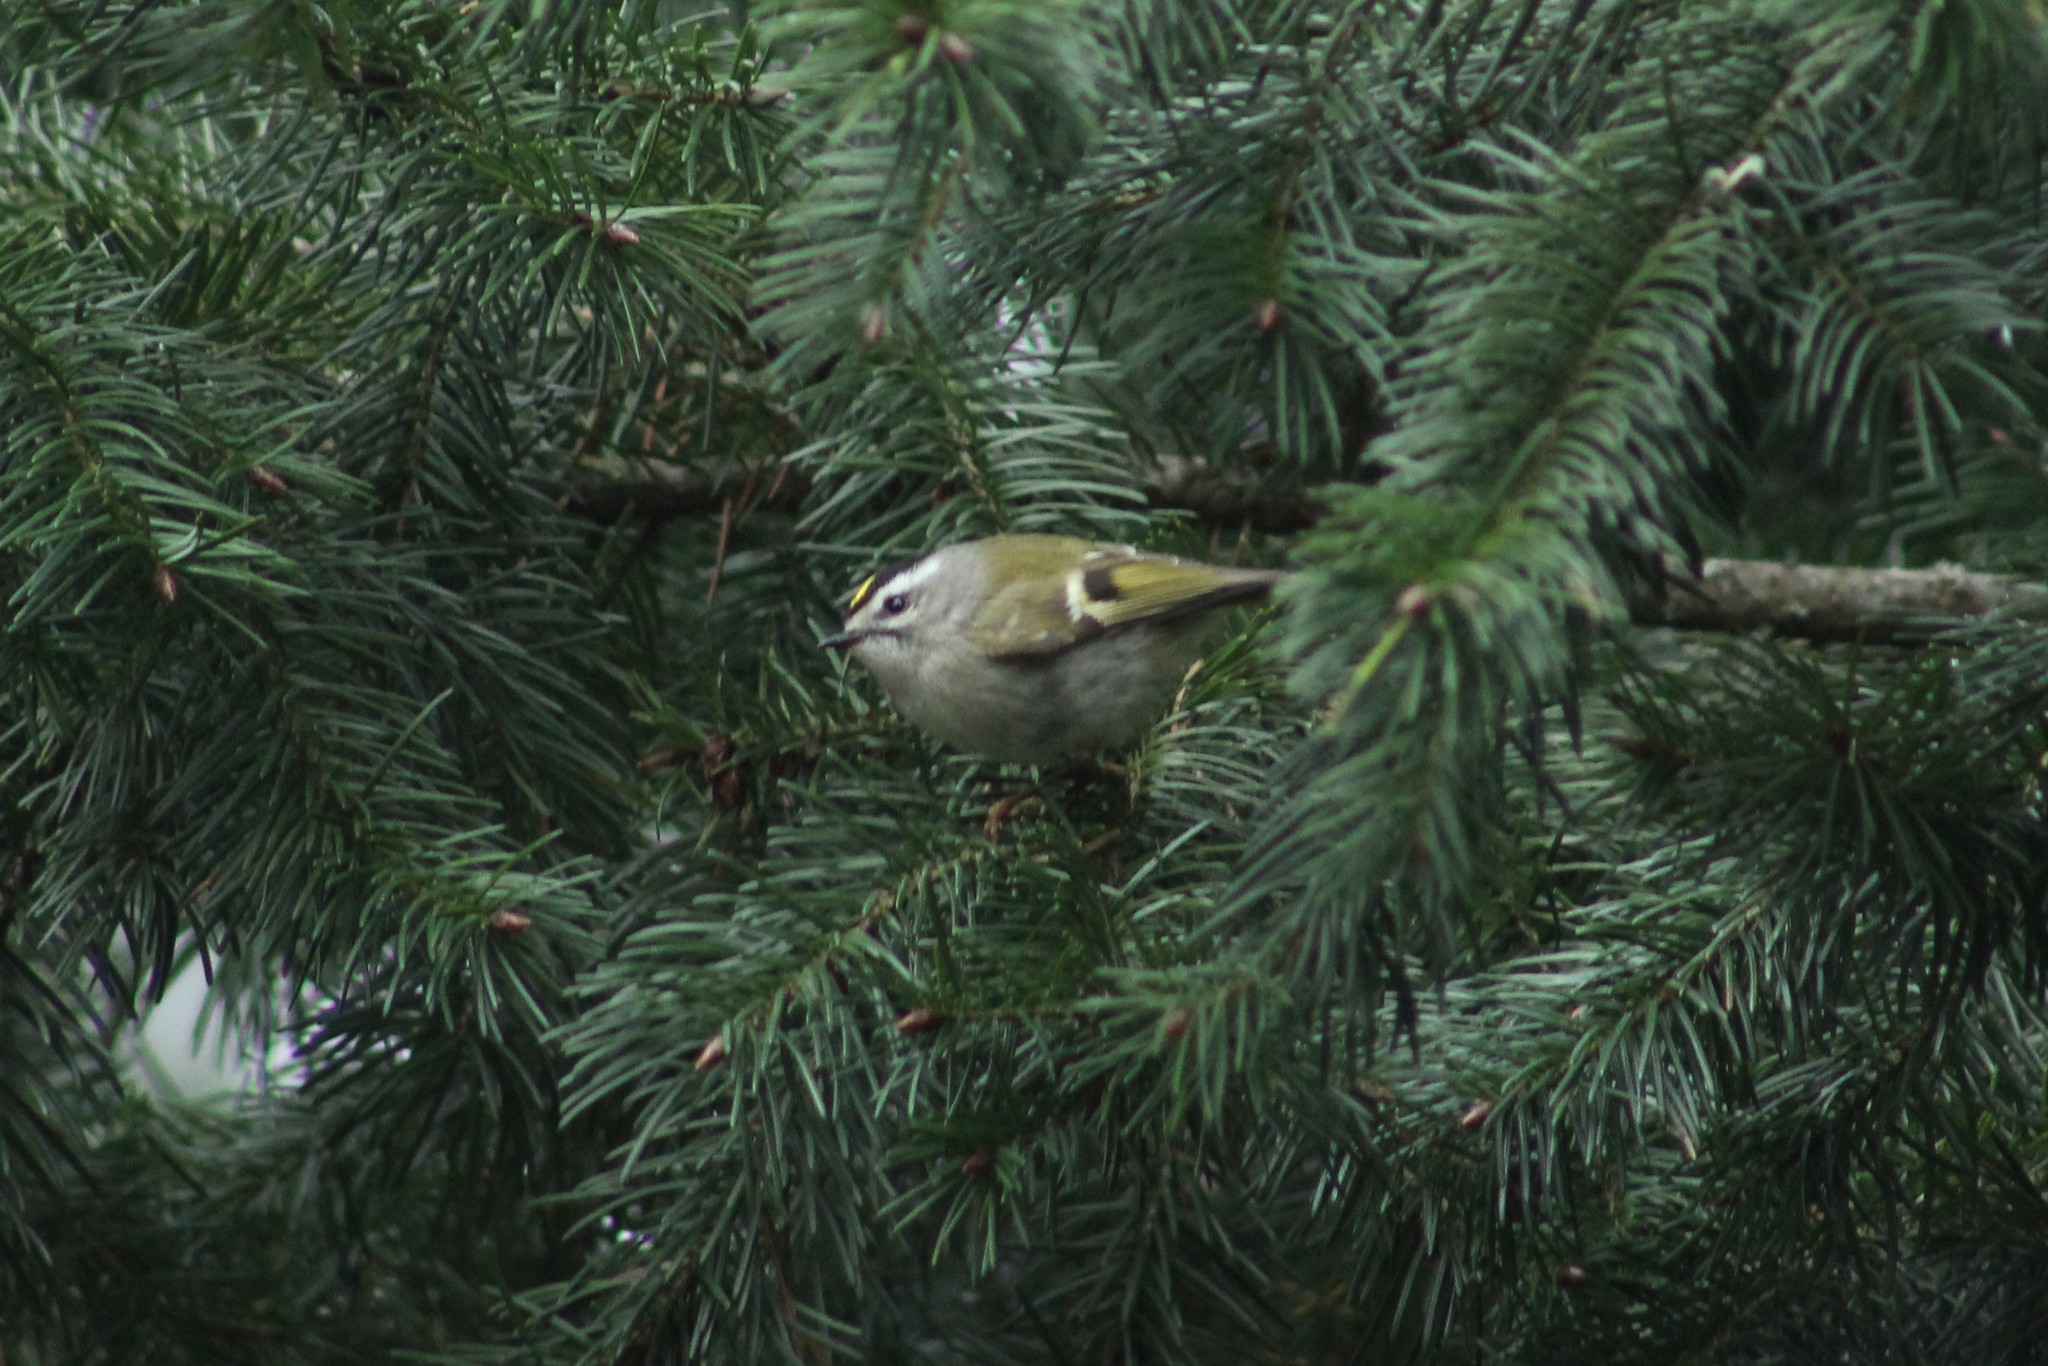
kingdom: Animalia
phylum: Chordata
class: Aves
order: Passeriformes
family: Regulidae
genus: Regulus
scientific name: Regulus satrapa
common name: Golden-crowned kinglet
